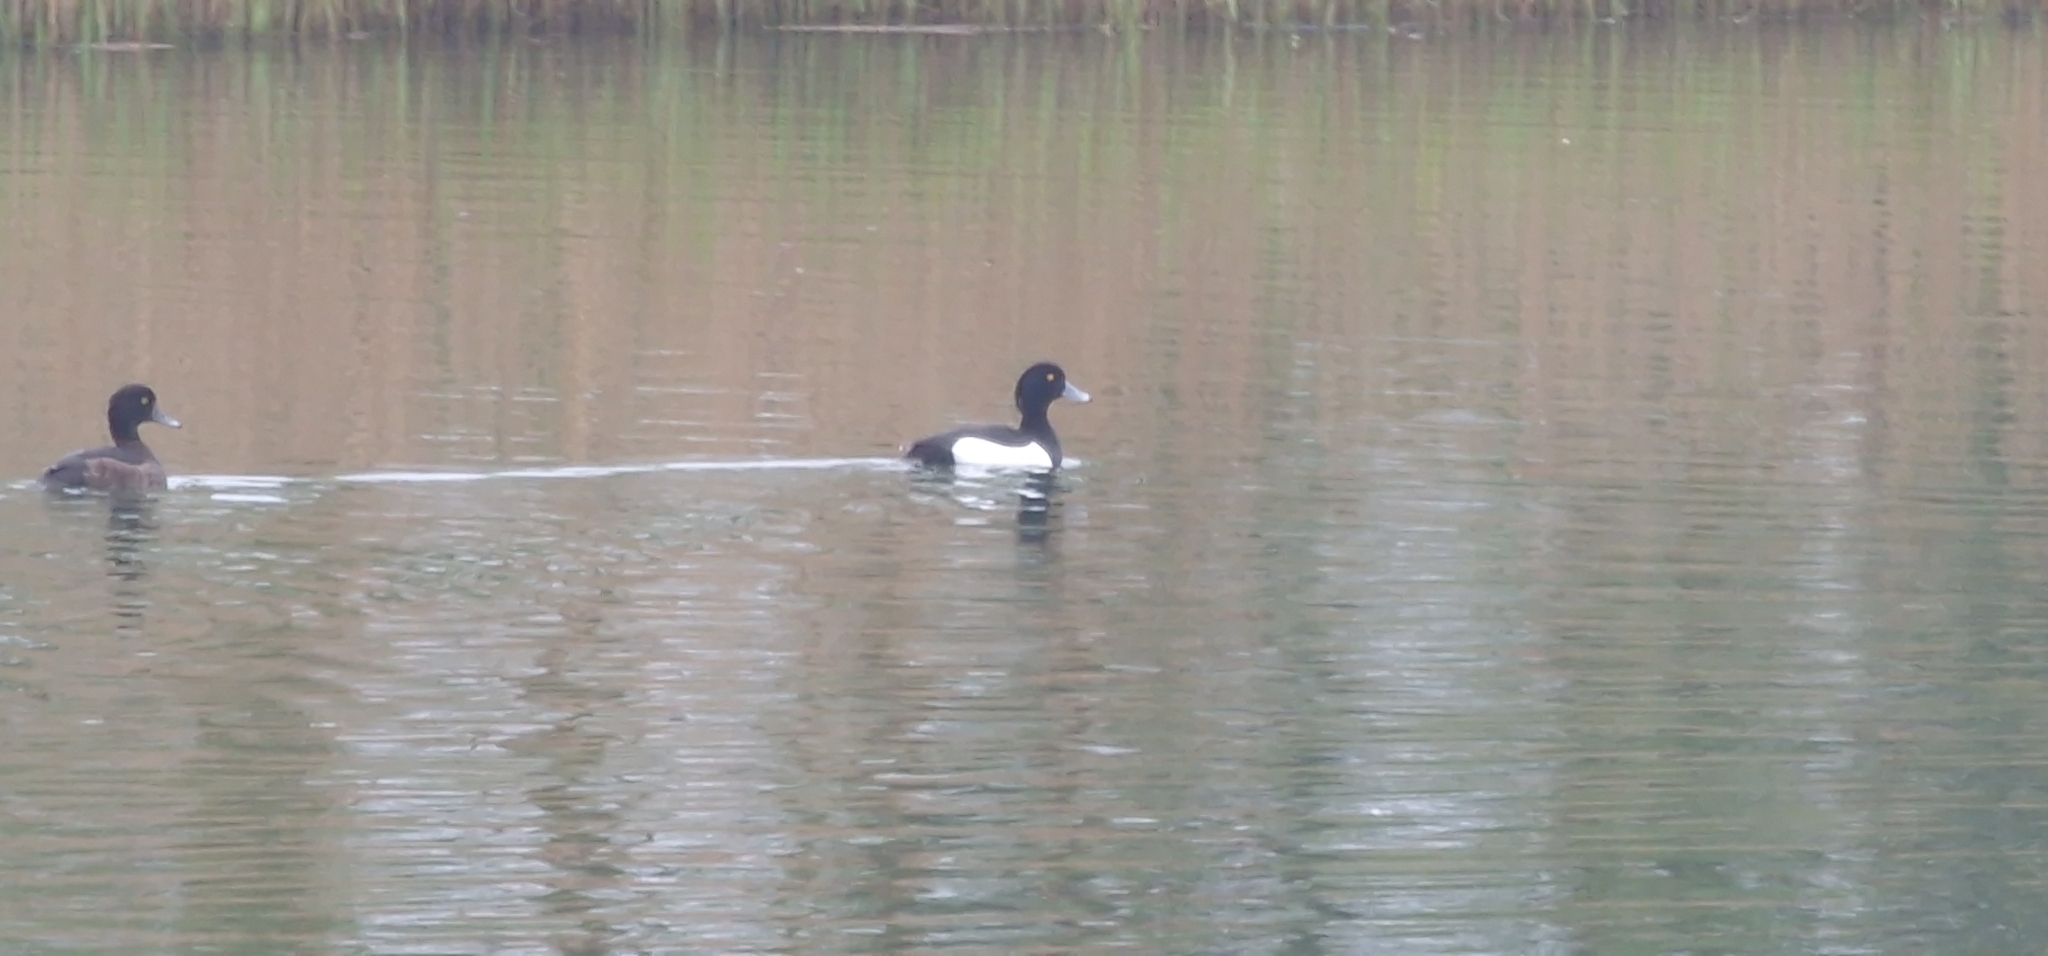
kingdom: Animalia
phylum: Chordata
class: Aves
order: Anseriformes
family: Anatidae
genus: Aythya
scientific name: Aythya fuligula
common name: Tufted duck
